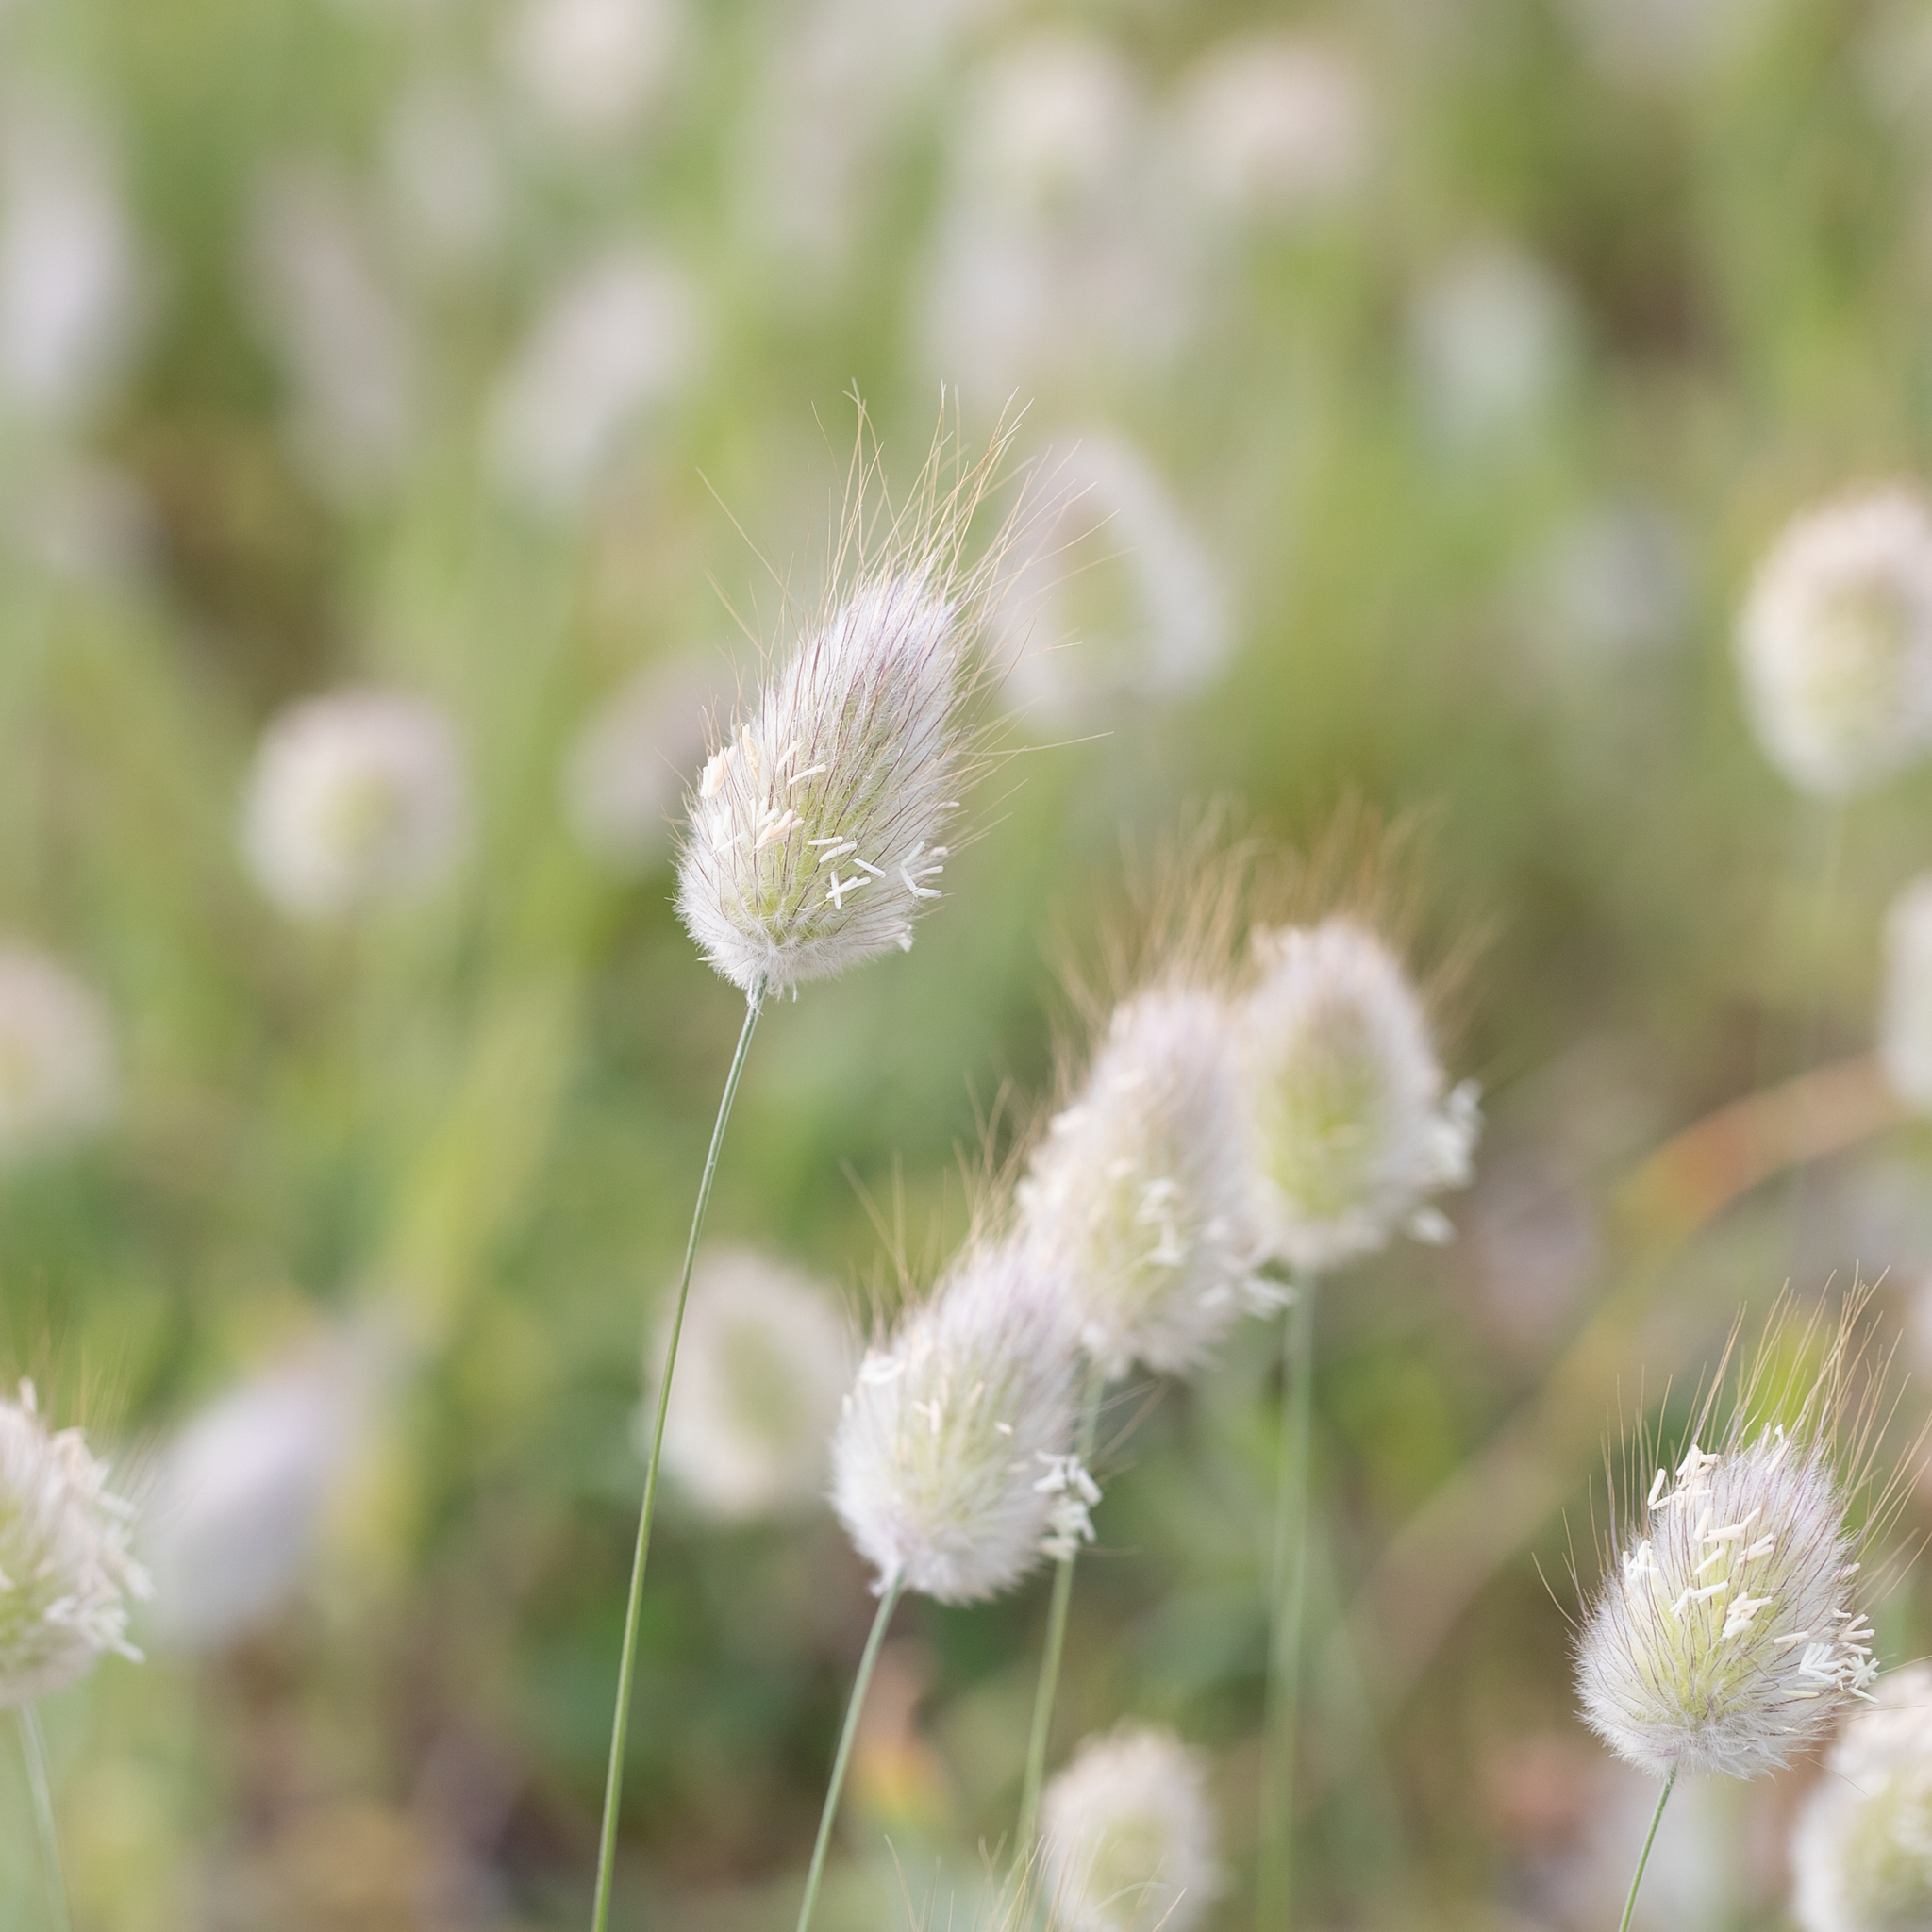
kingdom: Plantae
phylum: Tracheophyta
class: Liliopsida
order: Poales
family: Poaceae
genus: Lagurus
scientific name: Lagurus ovatus
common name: Hare's-tail
